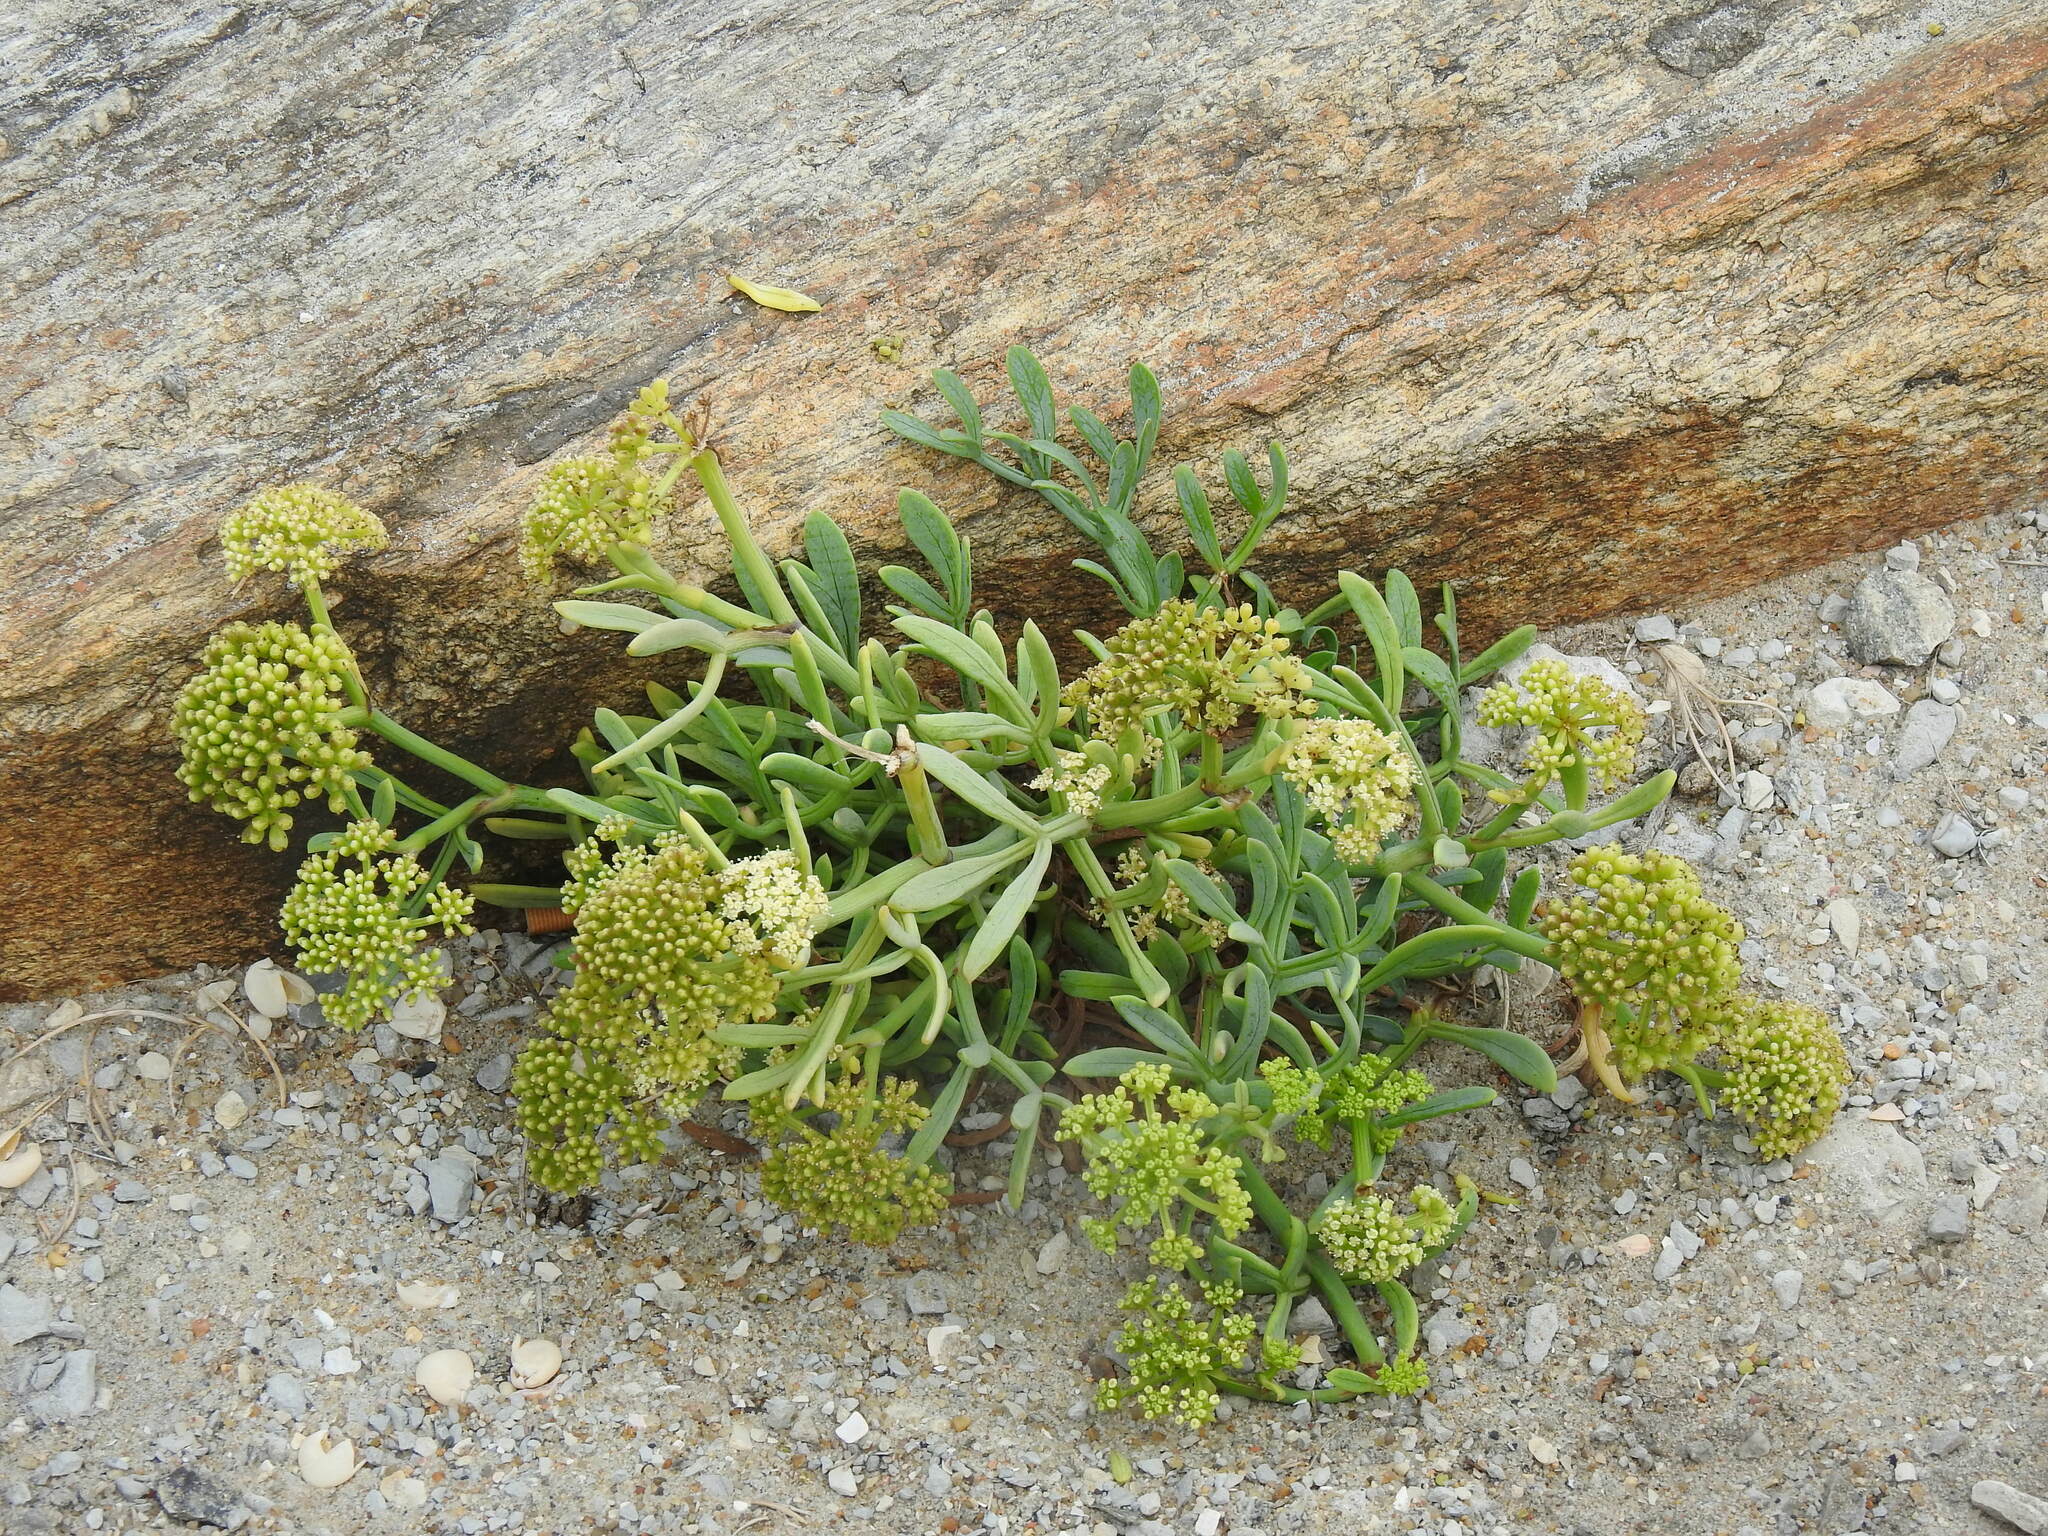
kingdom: Plantae
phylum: Tracheophyta
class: Magnoliopsida
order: Apiales
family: Apiaceae
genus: Crithmum
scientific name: Crithmum maritimum
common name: Rock samphire
